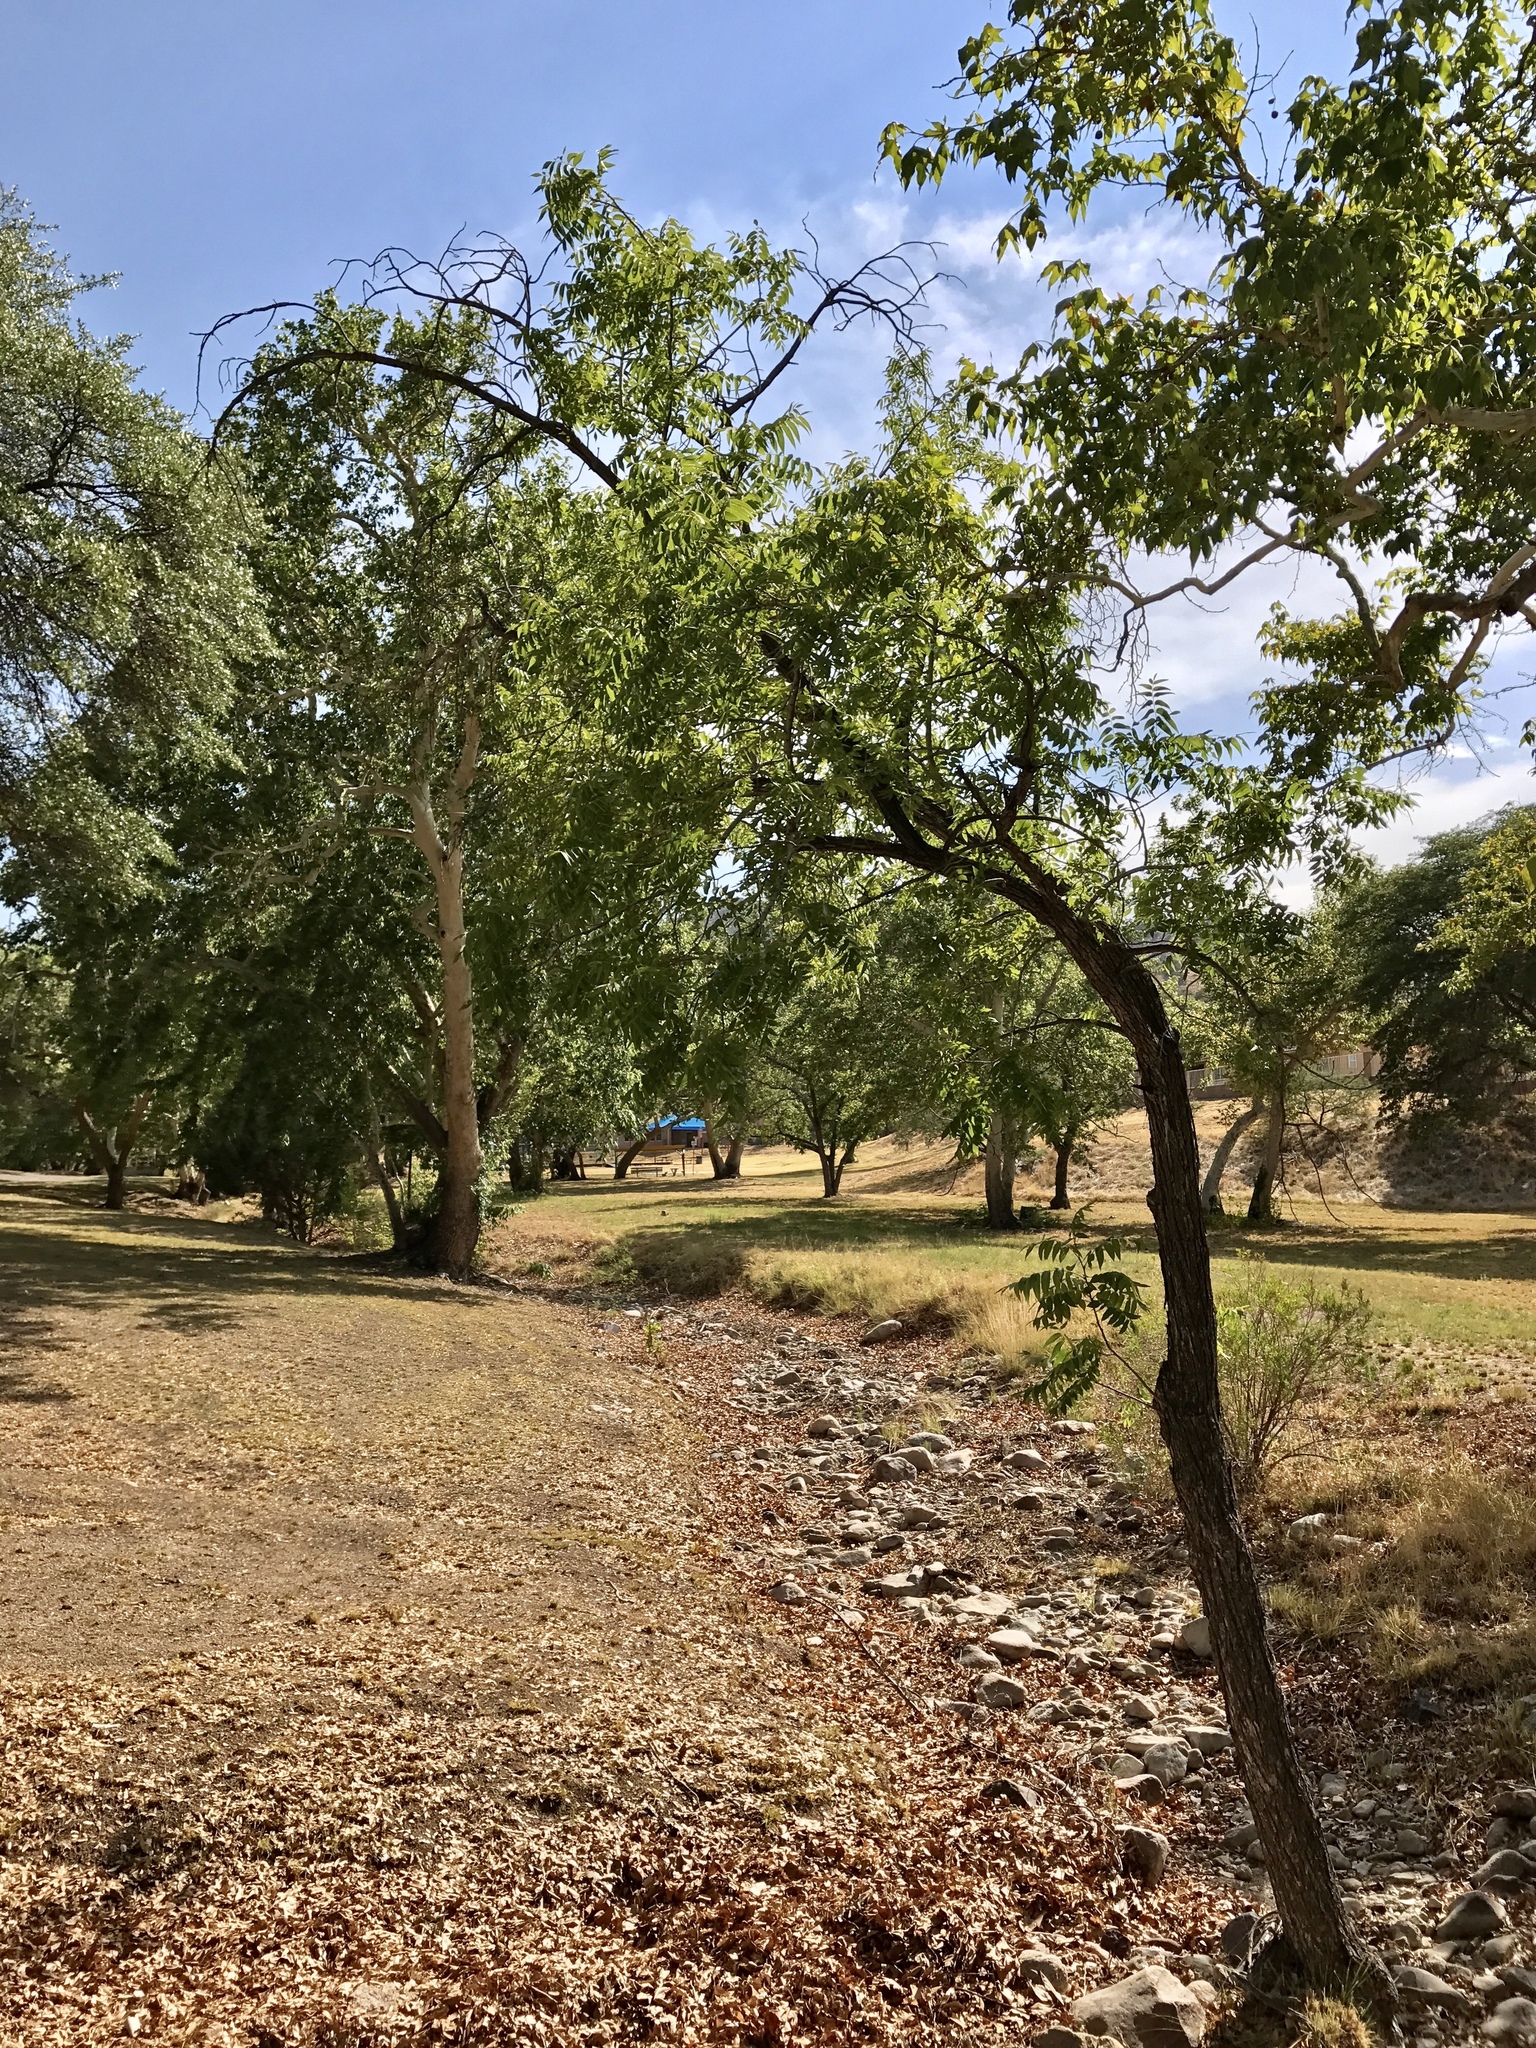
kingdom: Plantae
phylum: Tracheophyta
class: Magnoliopsida
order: Fagales
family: Juglandaceae
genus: Juglans
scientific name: Juglans major
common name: Arizona walnut
